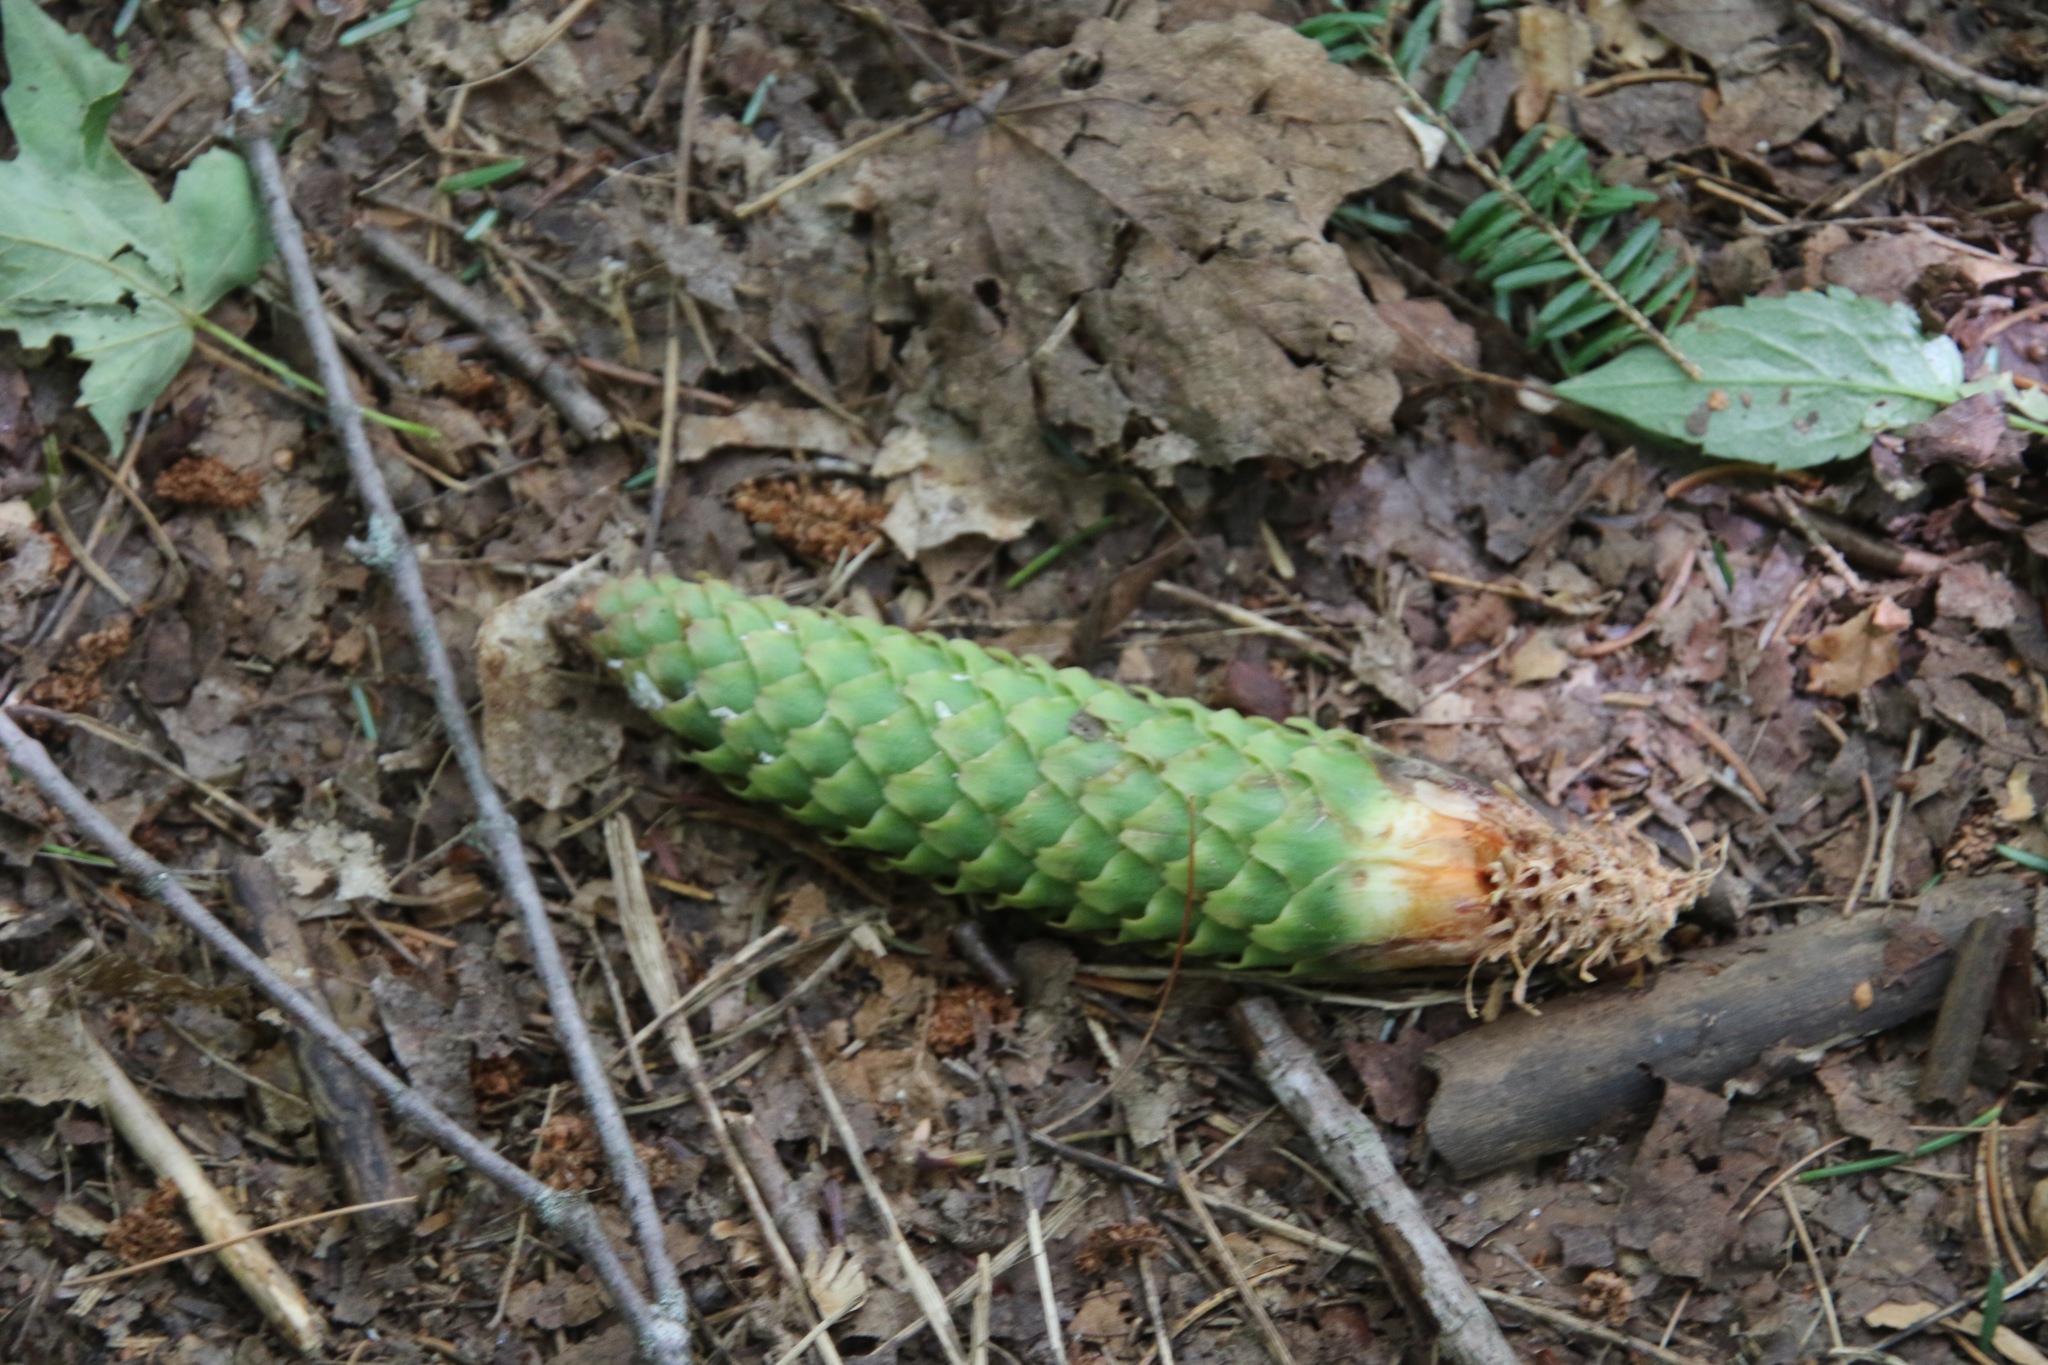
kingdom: Plantae
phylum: Tracheophyta
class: Pinopsida
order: Pinales
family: Pinaceae
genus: Picea
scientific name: Picea abies
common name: Norway spruce
